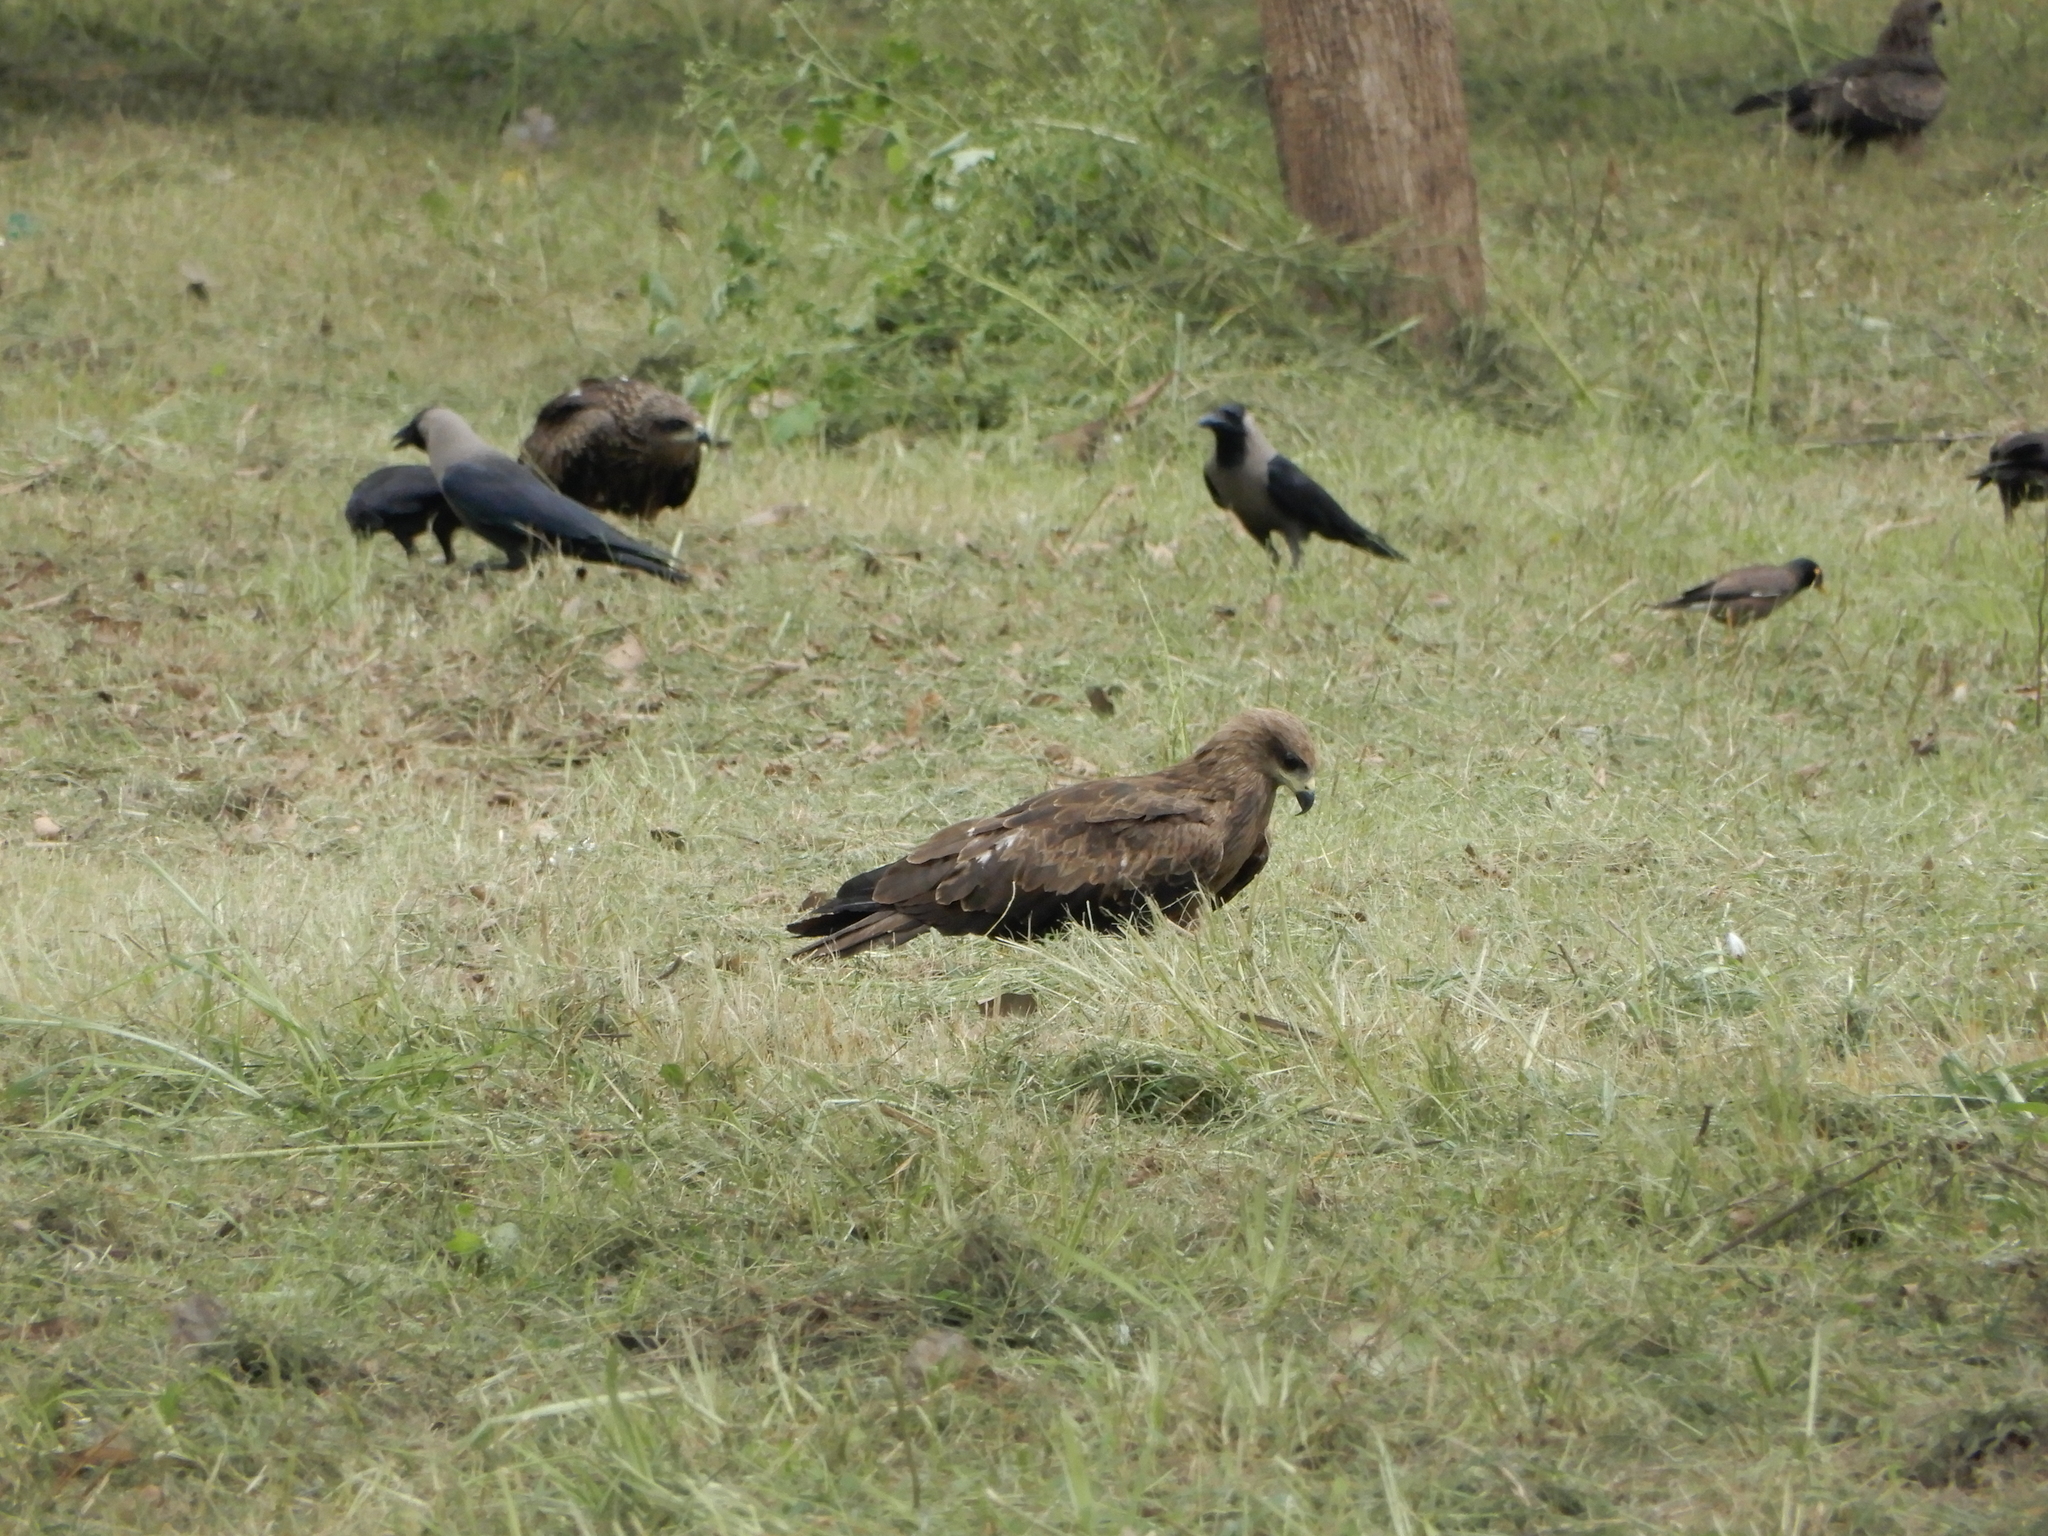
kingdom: Animalia
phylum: Chordata
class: Aves
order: Passeriformes
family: Corvidae
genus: Corvus
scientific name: Corvus splendens
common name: House crow
